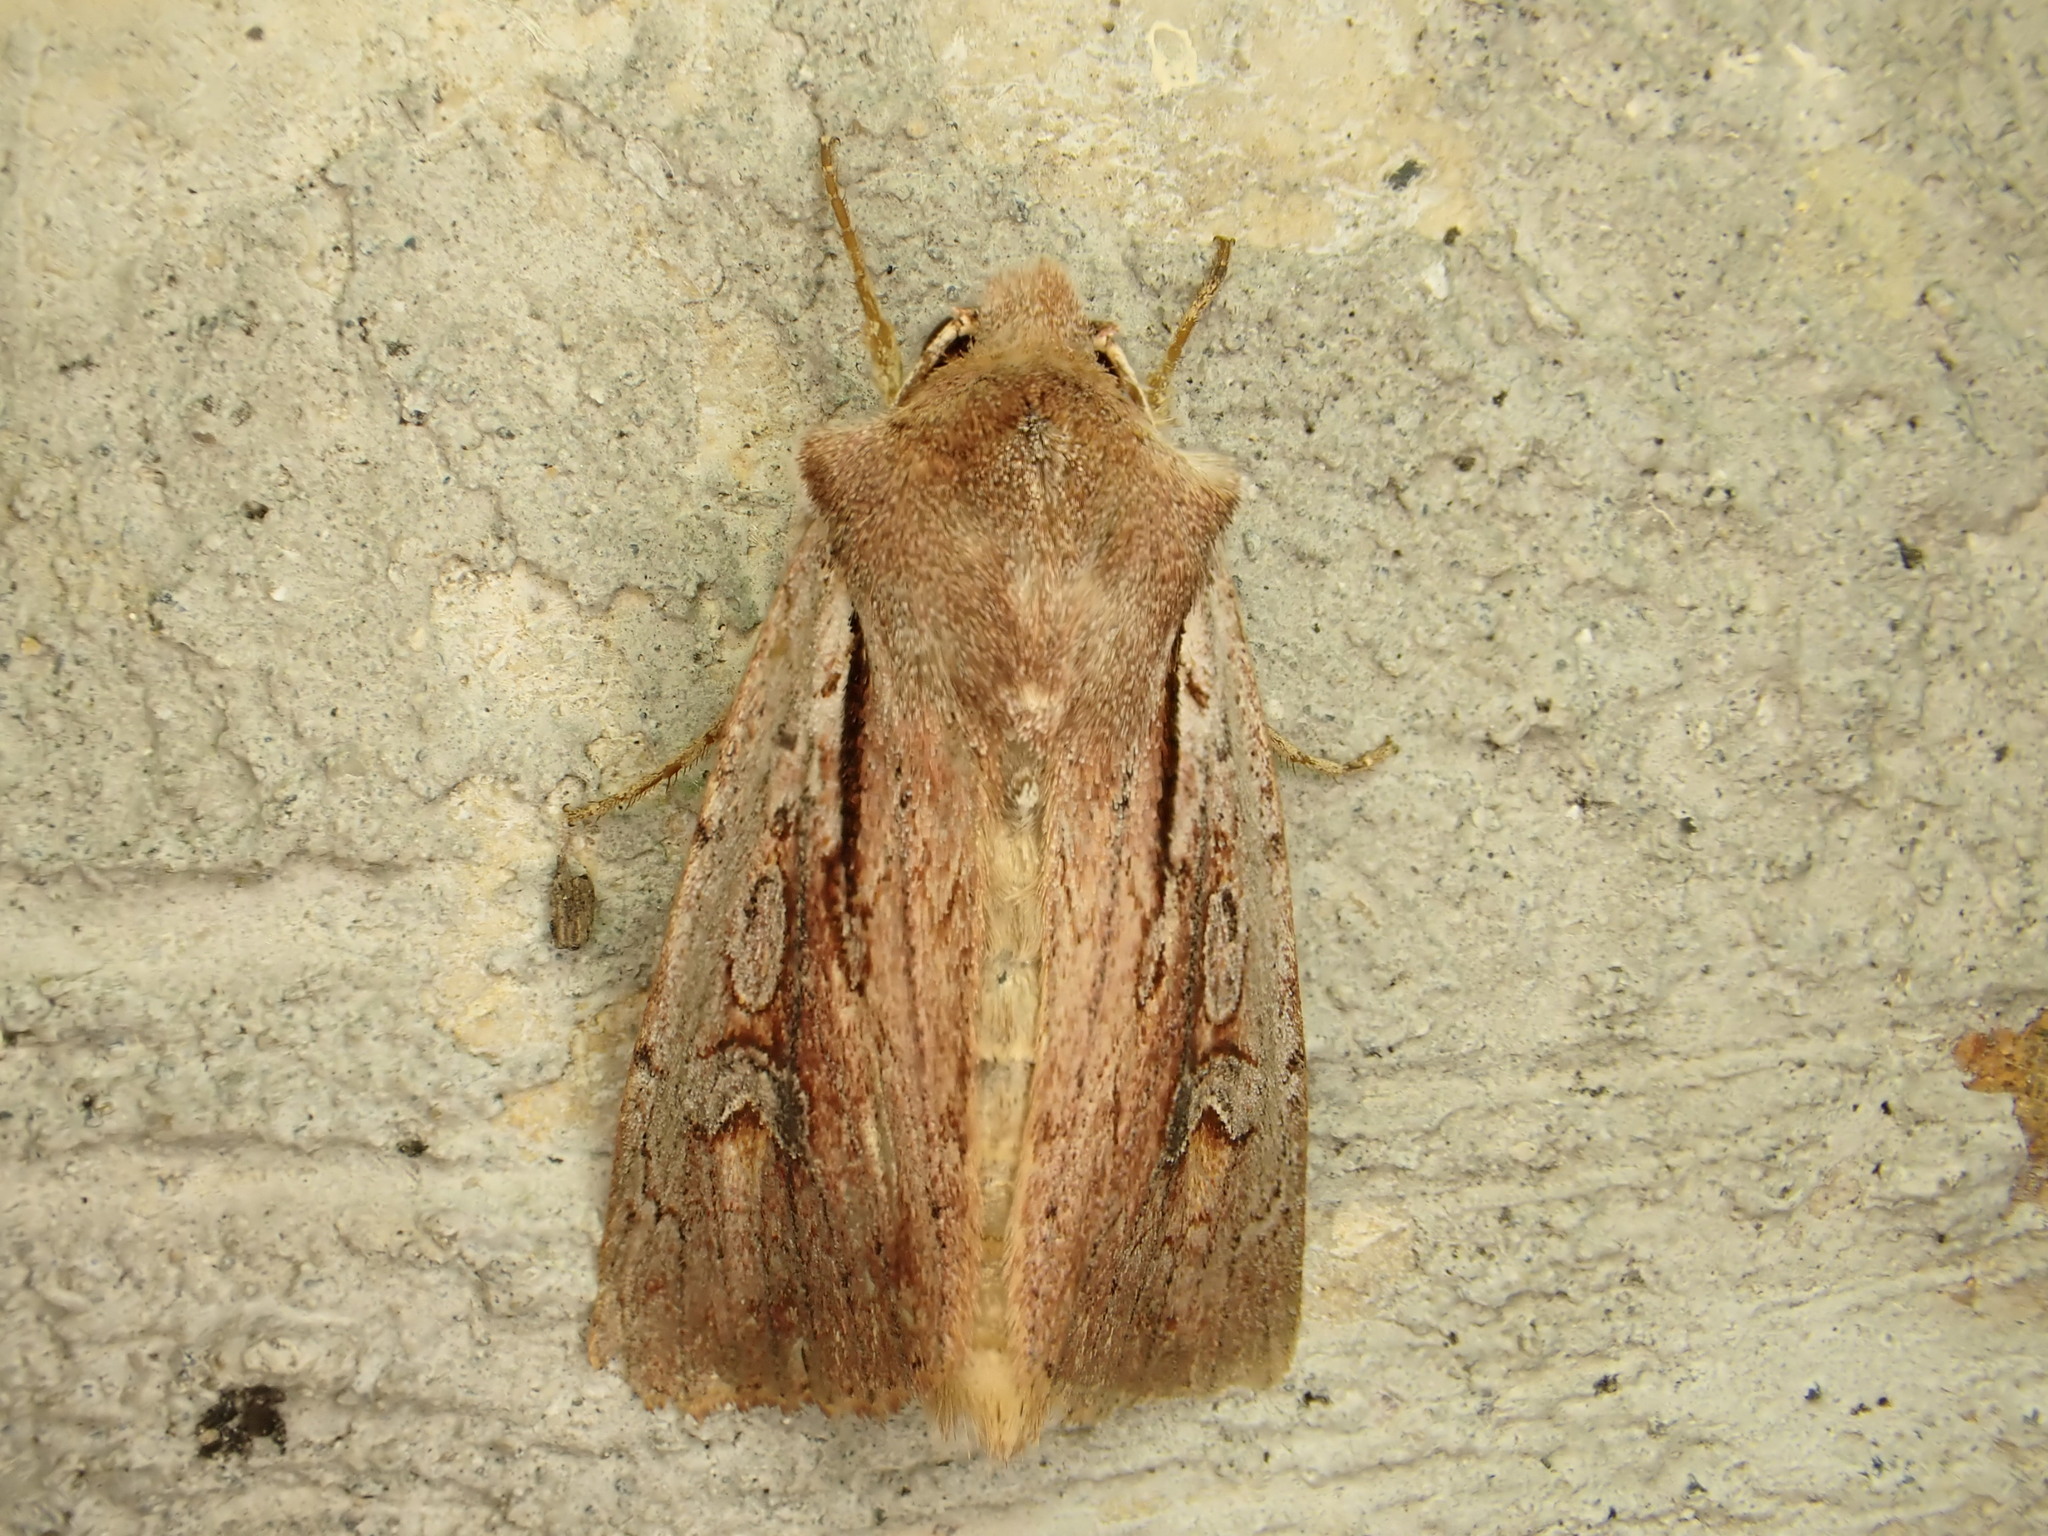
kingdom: Animalia
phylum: Arthropoda
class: Insecta
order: Lepidoptera
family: Noctuidae
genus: Ichneutica
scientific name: Ichneutica atristriga
